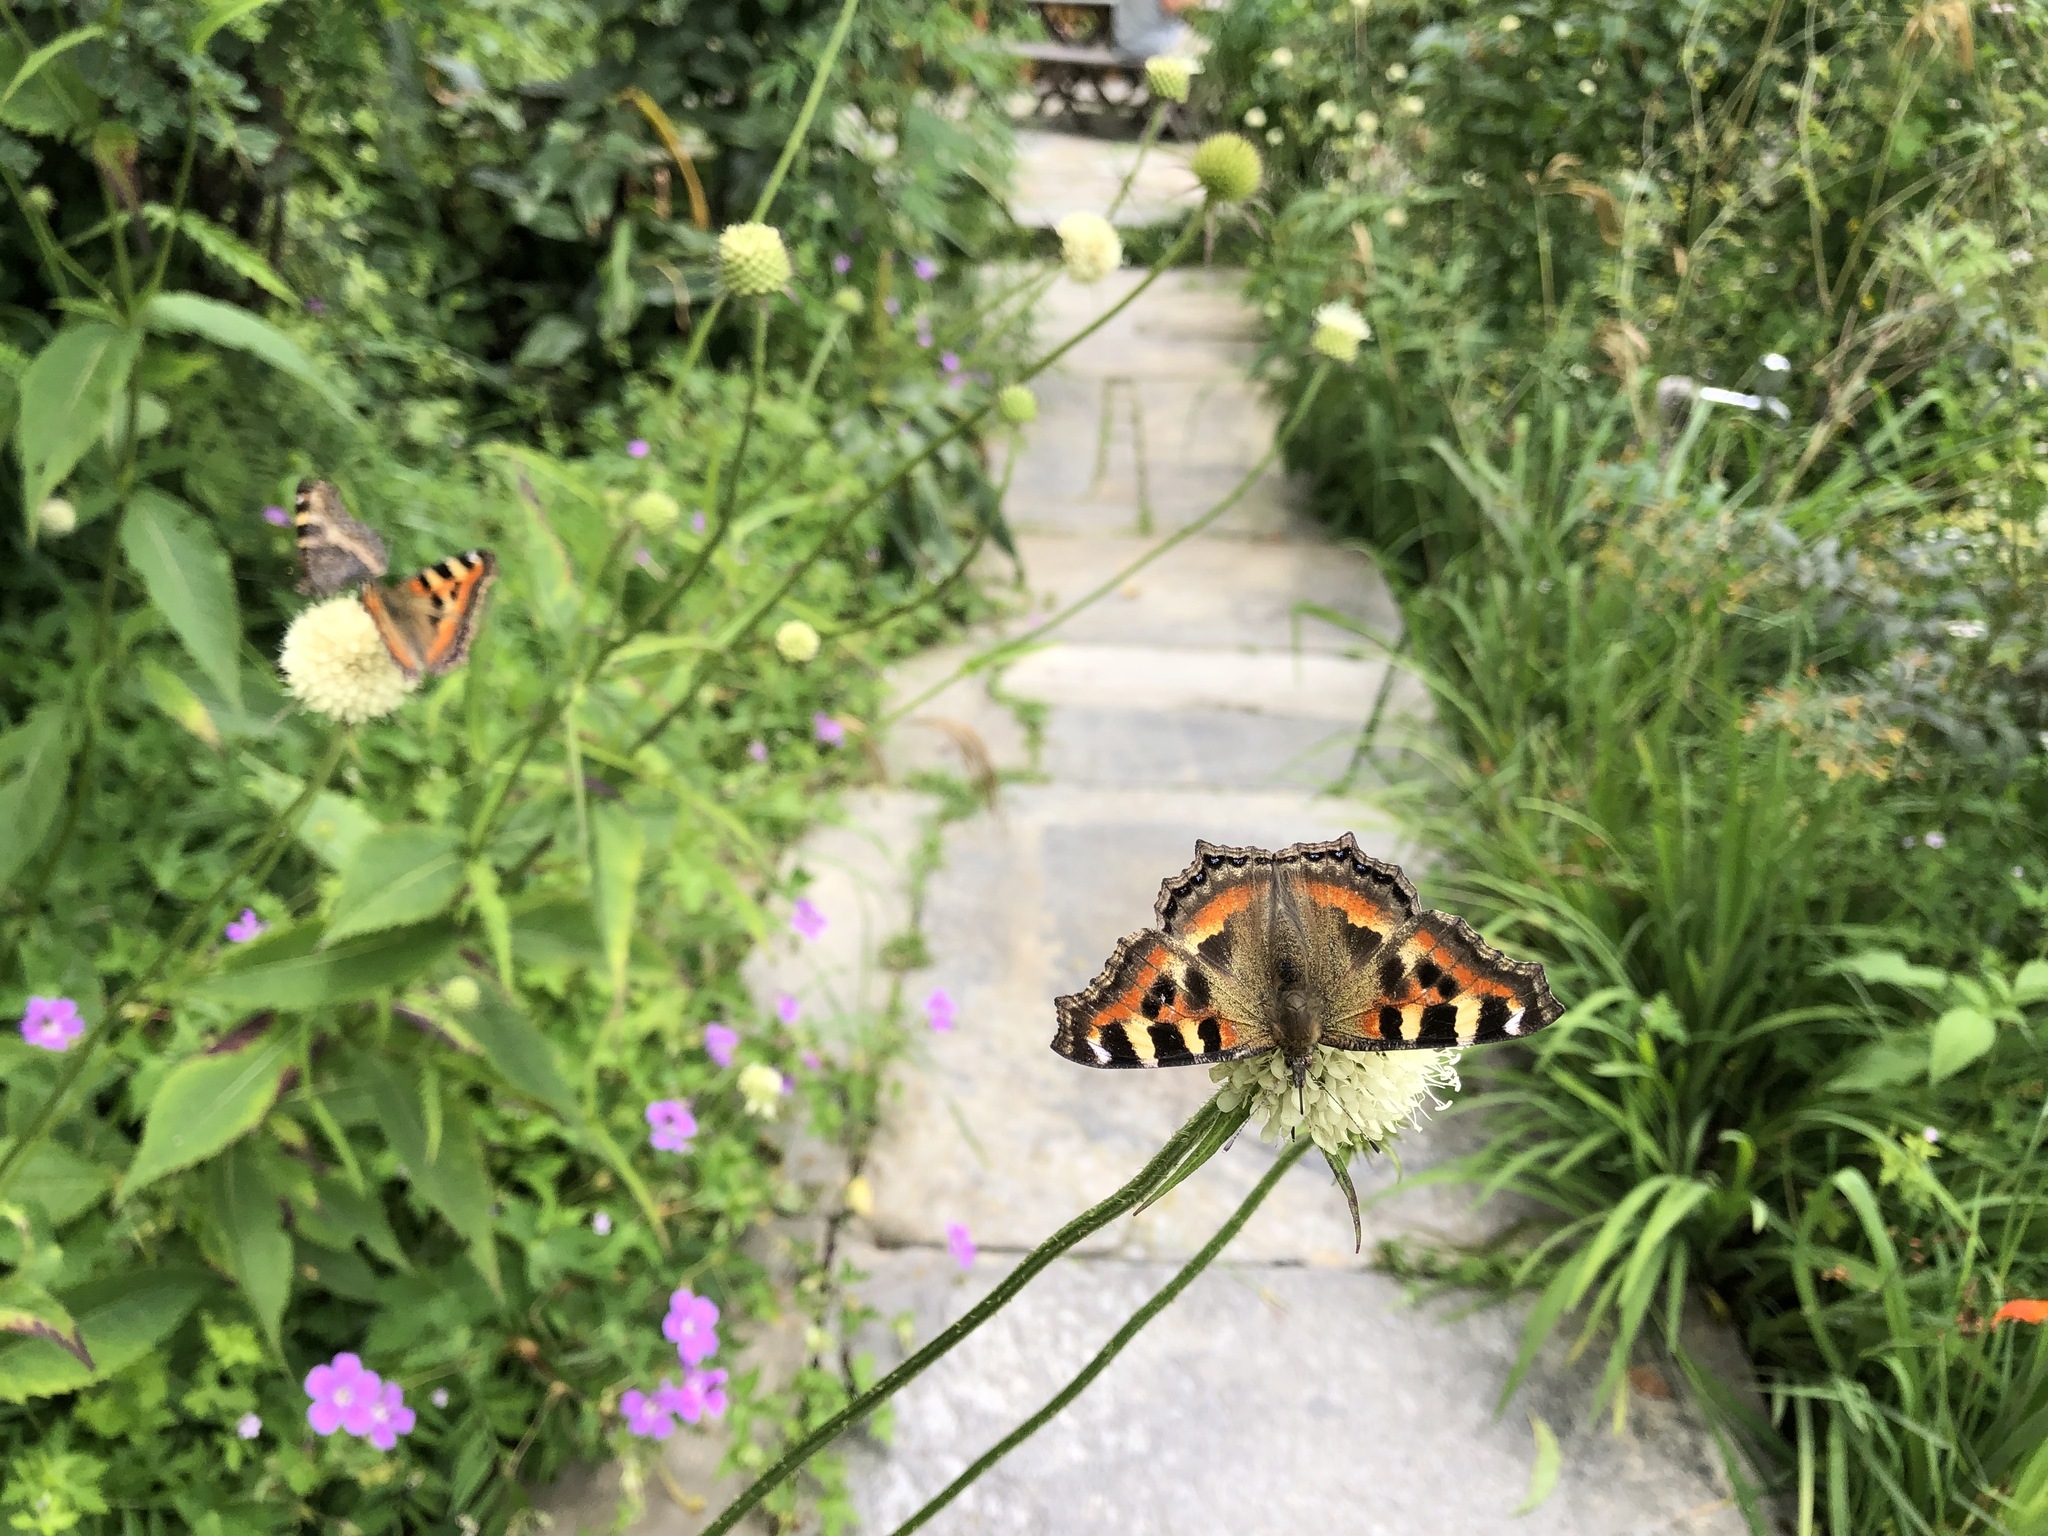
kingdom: Animalia
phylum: Arthropoda
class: Insecta
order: Lepidoptera
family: Nymphalidae
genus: Aglais
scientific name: Aglais caschmirensis
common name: Indian tortoiseshell
